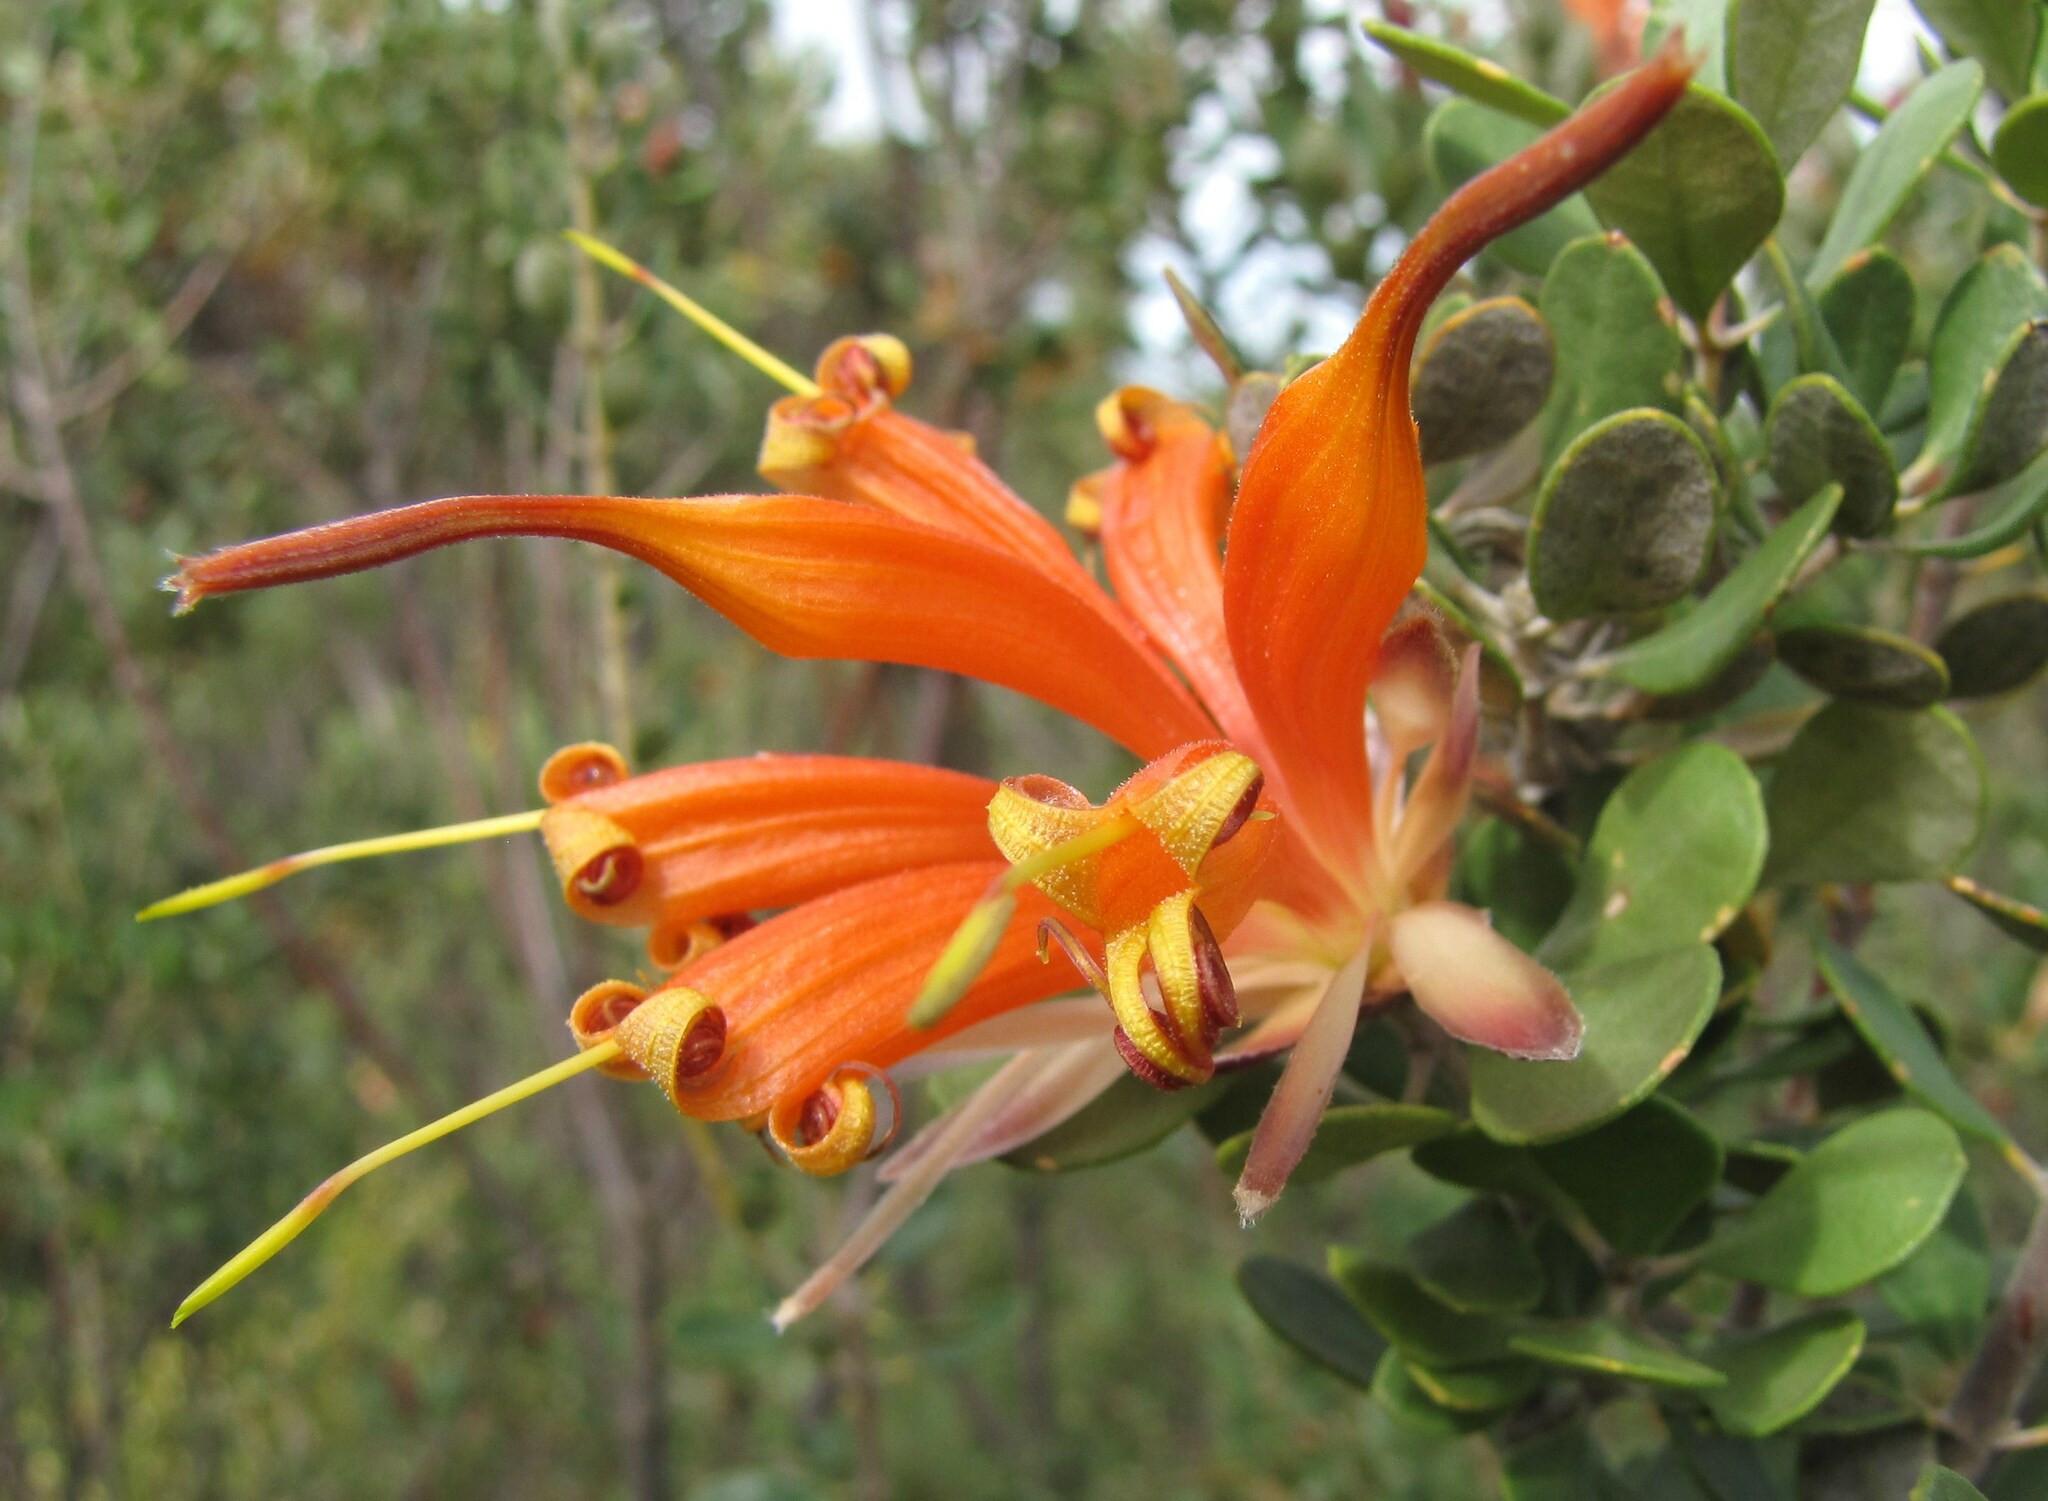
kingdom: Plantae
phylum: Tracheophyta
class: Magnoliopsida
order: Proteales
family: Proteaceae
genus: Lambertia
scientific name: Lambertia inermis
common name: Chittick
